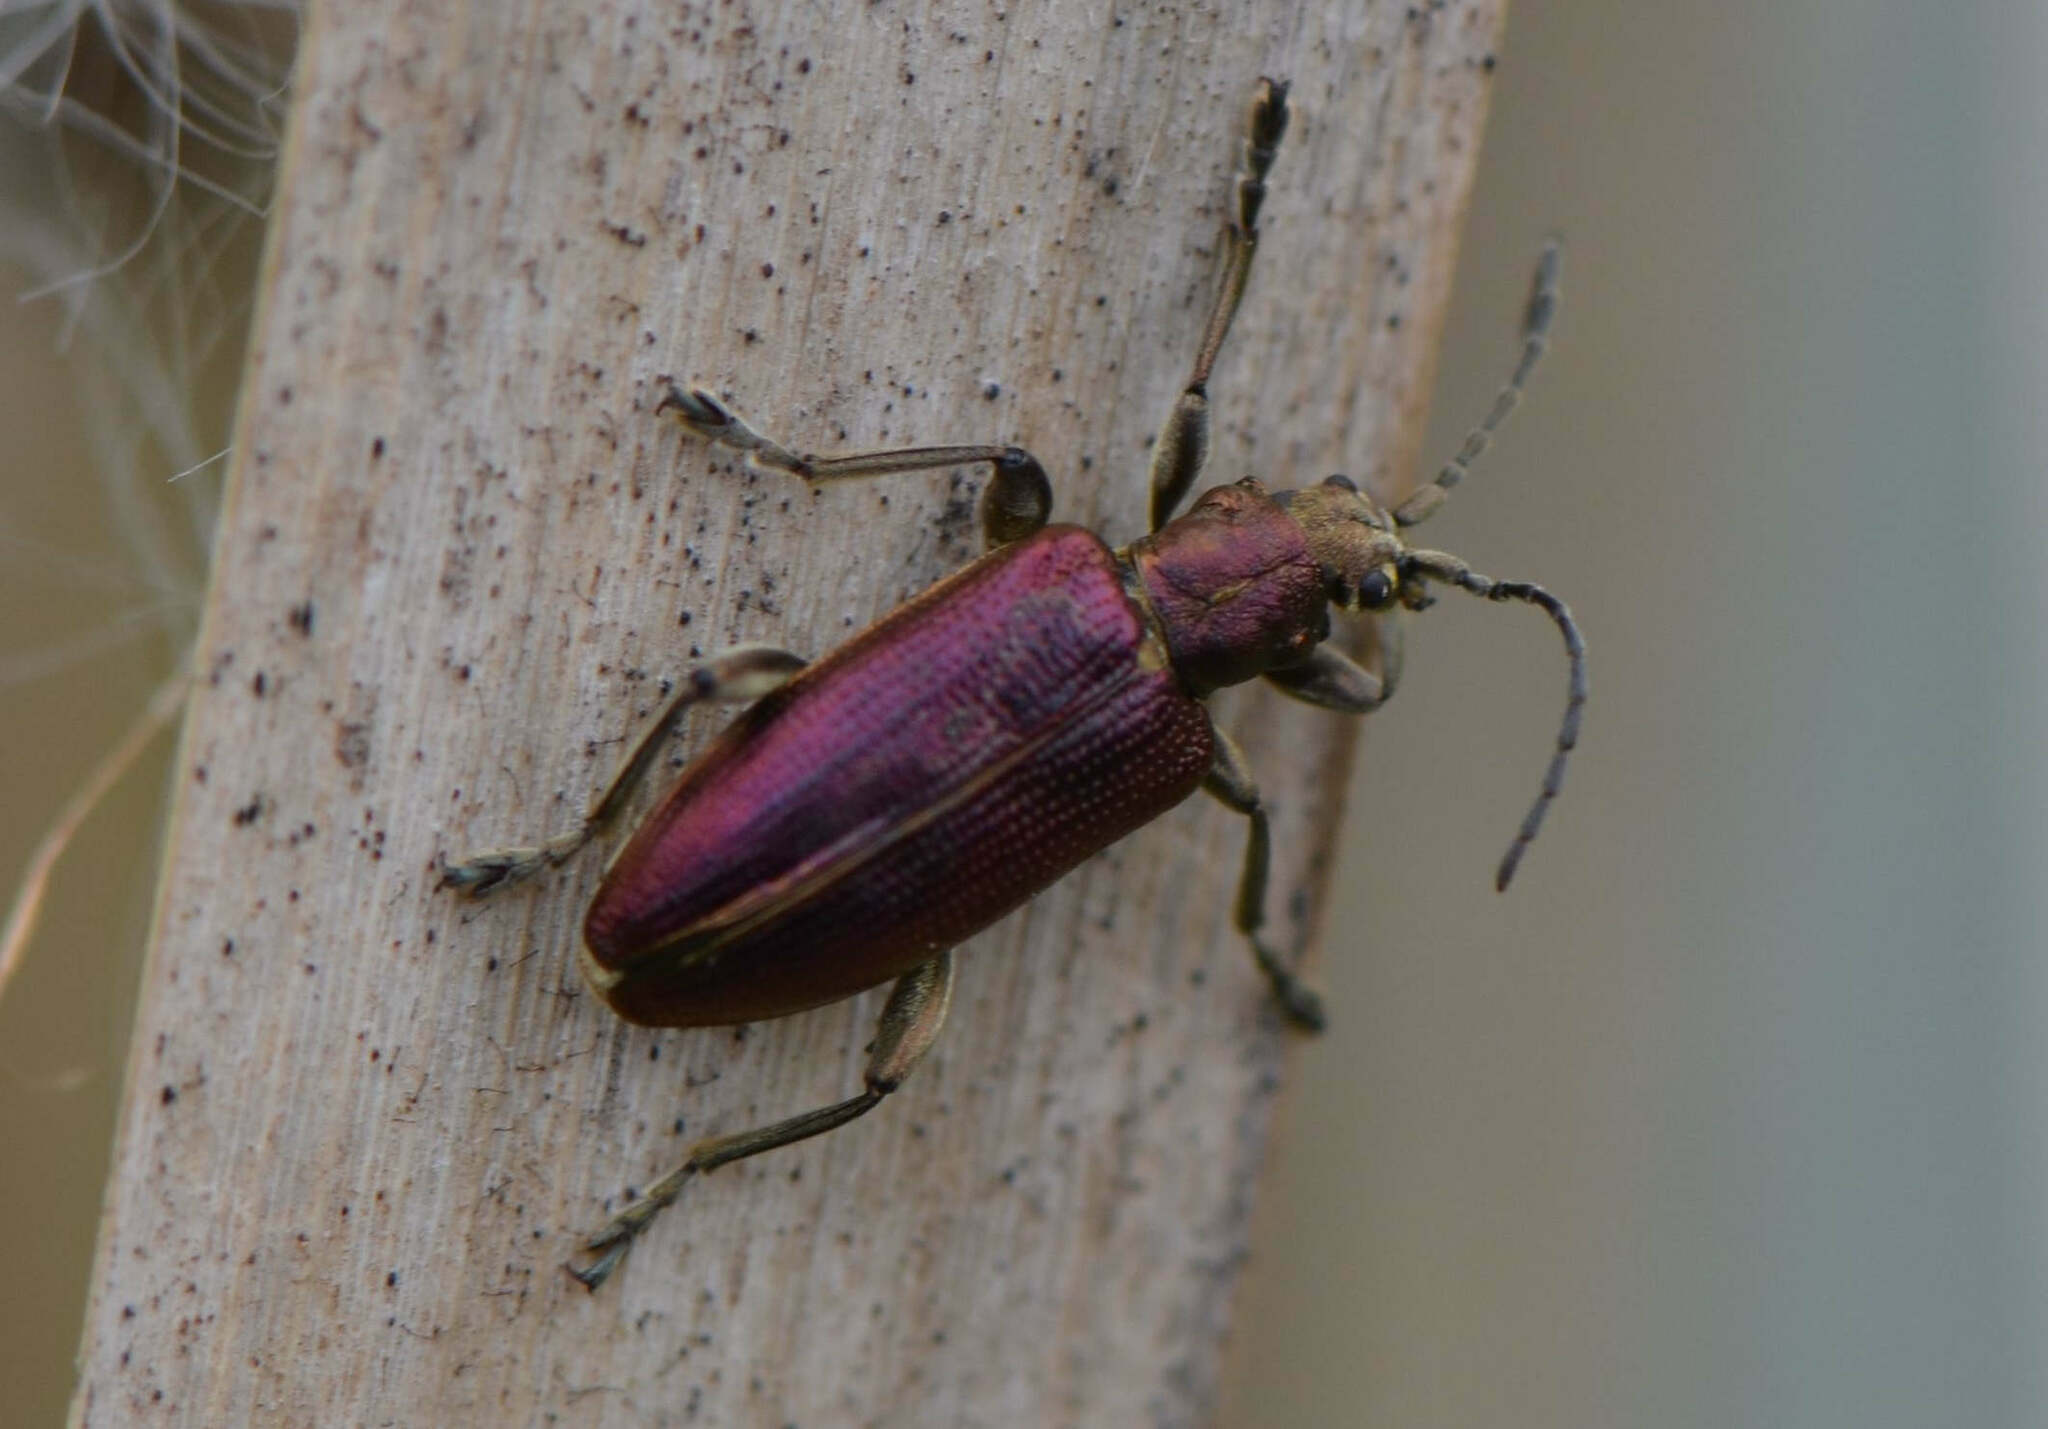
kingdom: Animalia
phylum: Arthropoda
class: Insecta
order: Coleoptera
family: Chrysomelidae
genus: Plateumaris
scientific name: Plateumaris sericea
